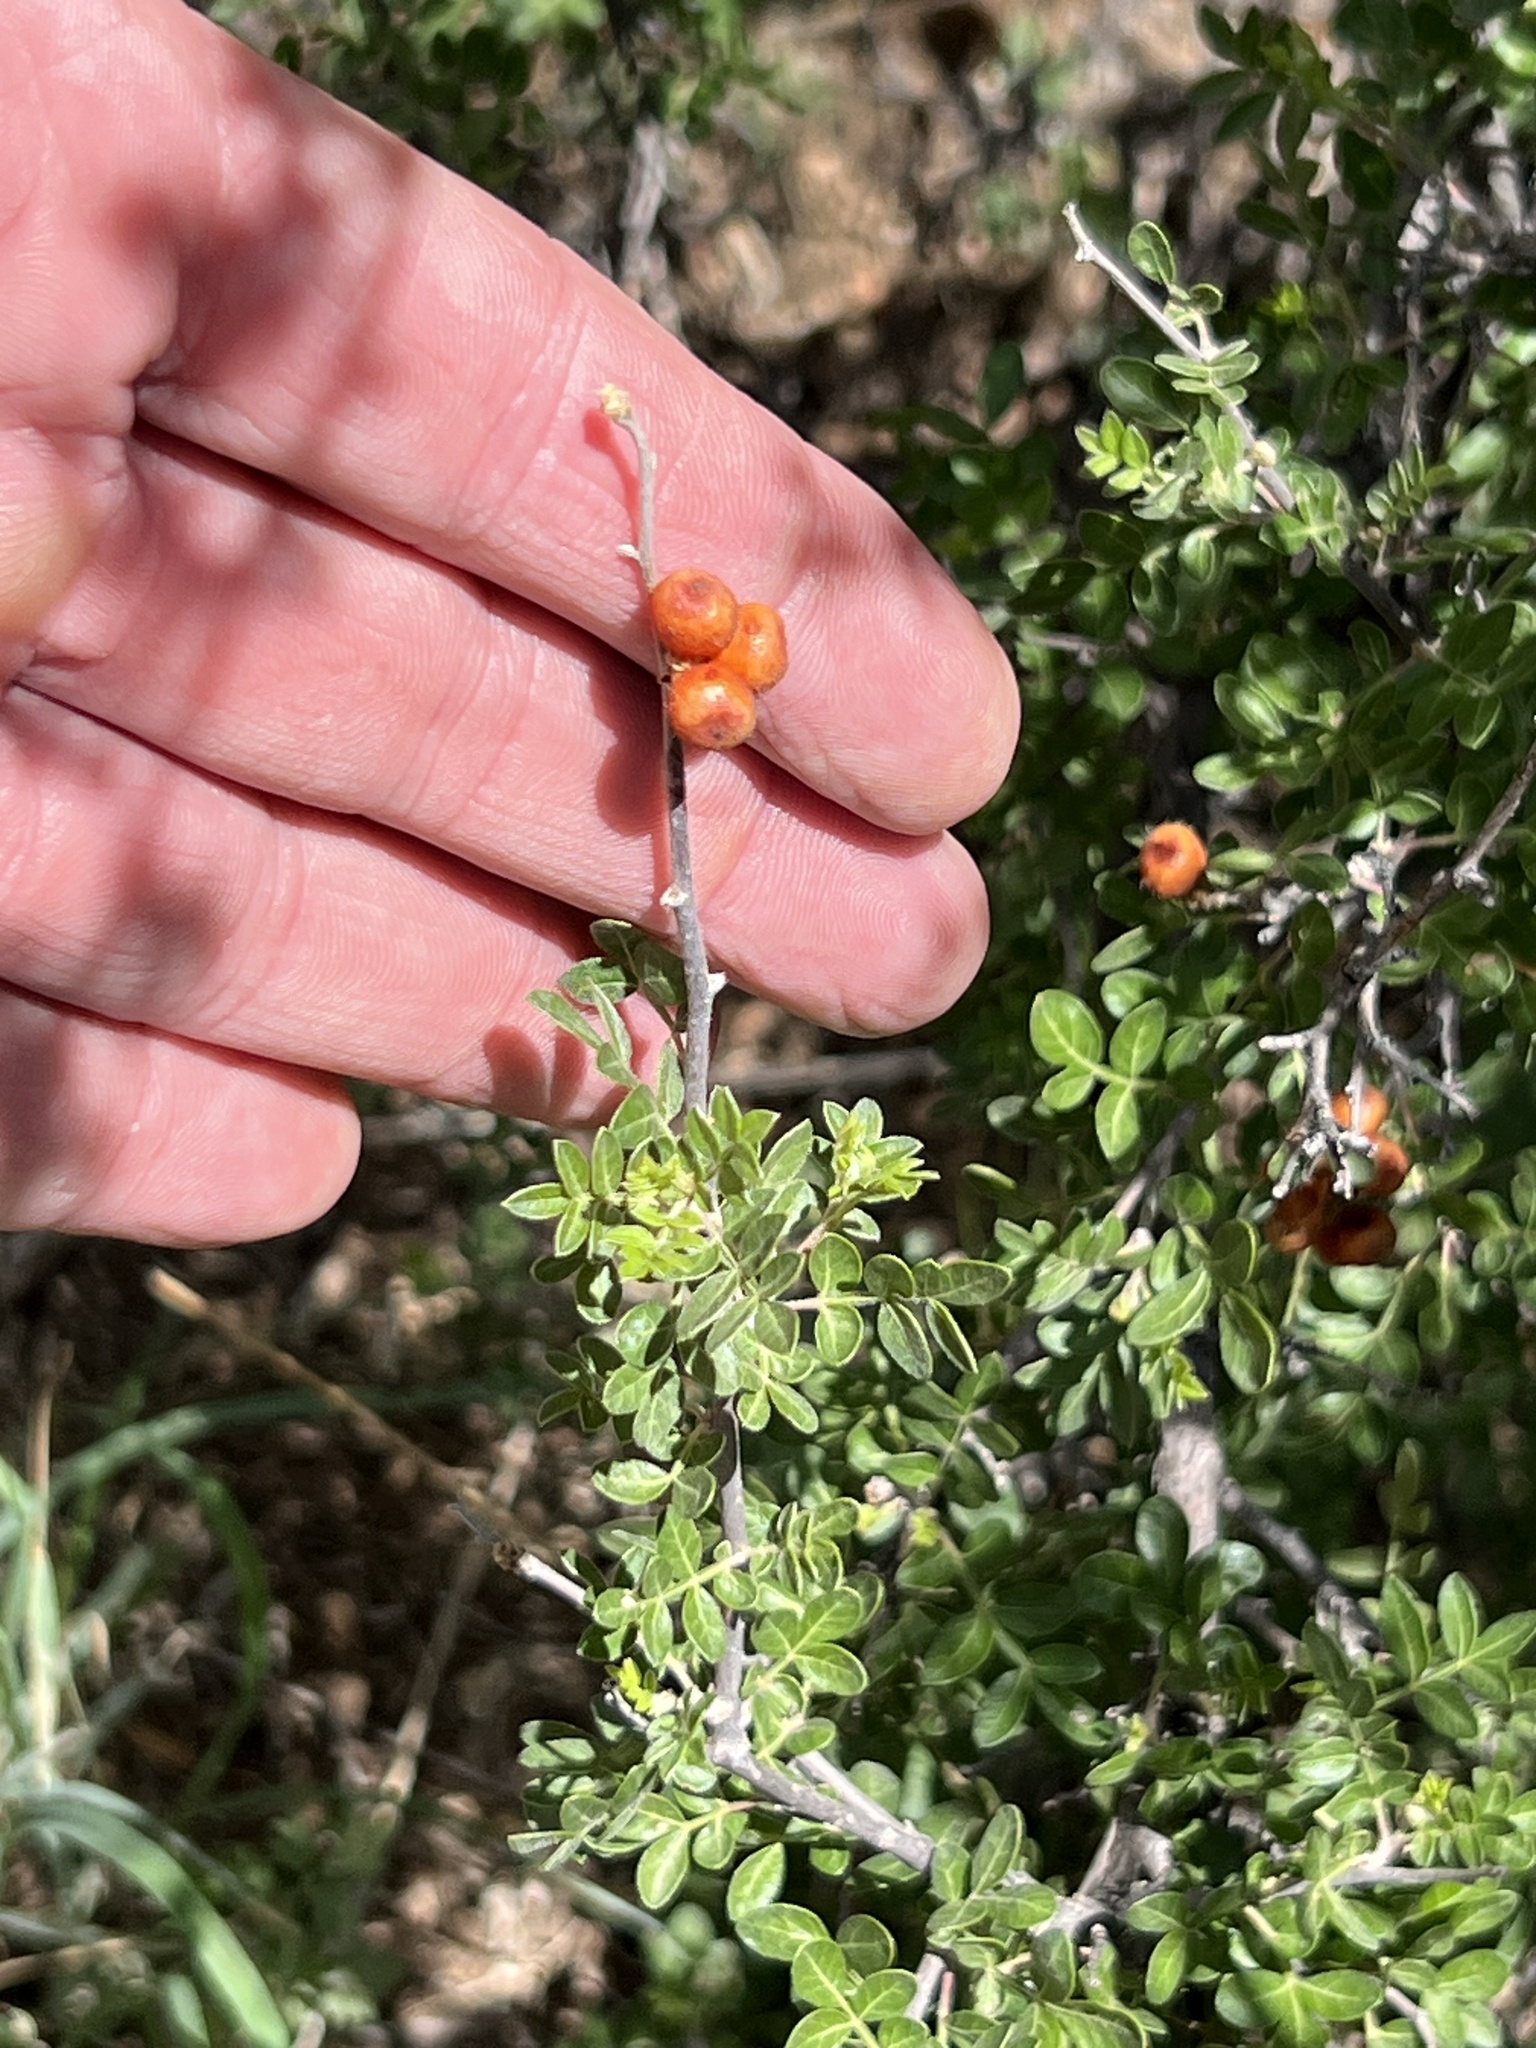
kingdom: Plantae
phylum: Tracheophyta
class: Magnoliopsida
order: Sapindales
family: Anacardiaceae
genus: Rhus
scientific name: Rhus microphylla
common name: Desert sumac
